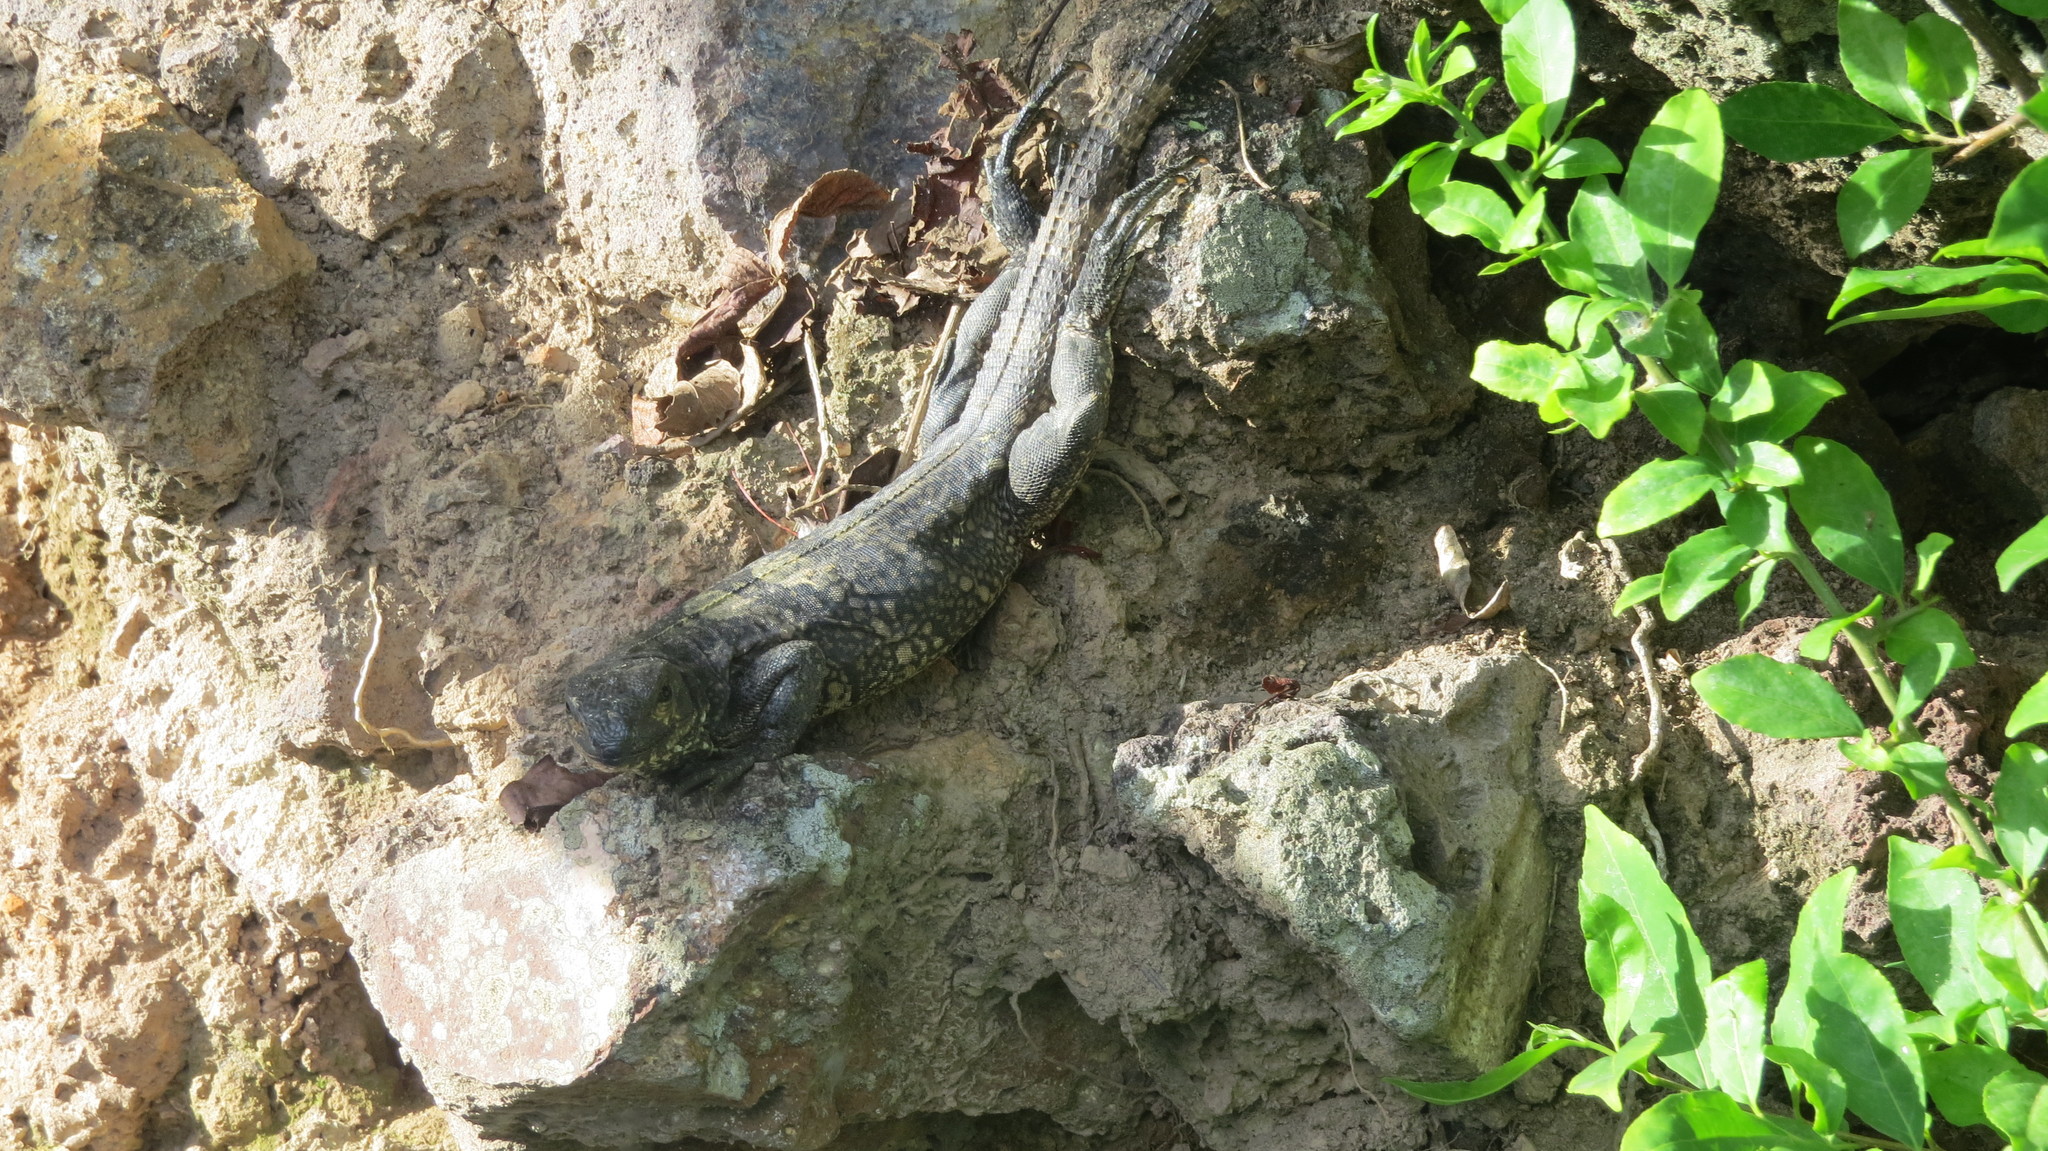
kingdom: Animalia
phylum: Chordata
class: Squamata
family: Iguanidae
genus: Ctenosaura
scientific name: Ctenosaura similis
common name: Black spiny-tailed iguana
